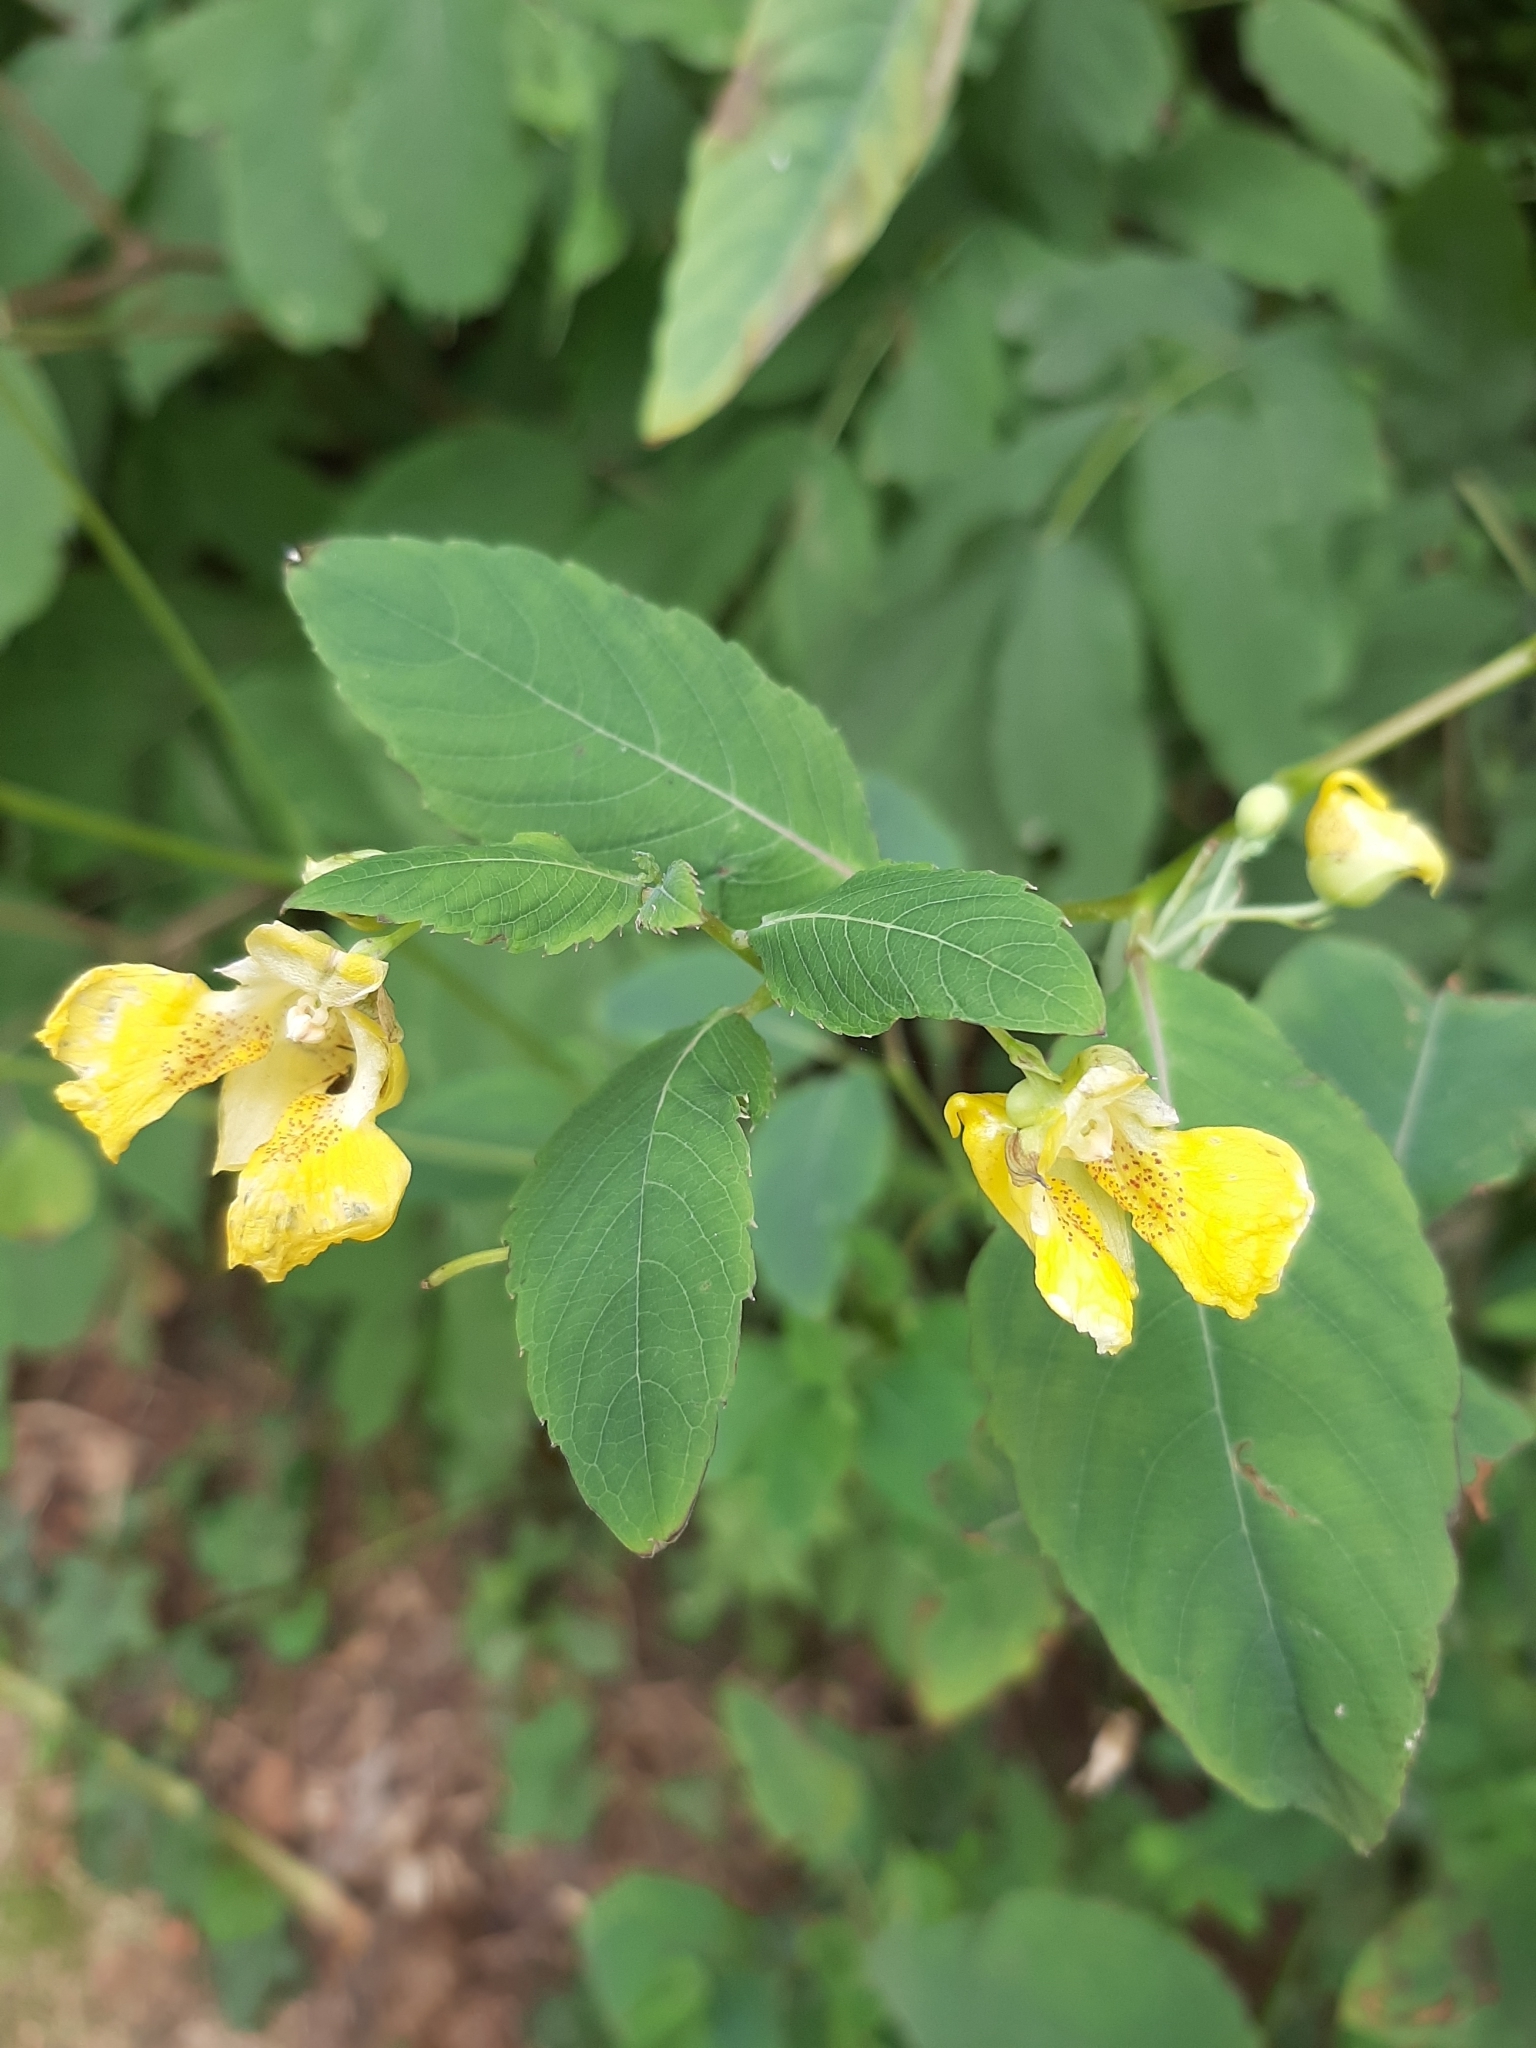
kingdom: Plantae
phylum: Tracheophyta
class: Magnoliopsida
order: Ericales
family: Balsaminaceae
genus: Impatiens
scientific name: Impatiens pallida
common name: Pale snapweed
